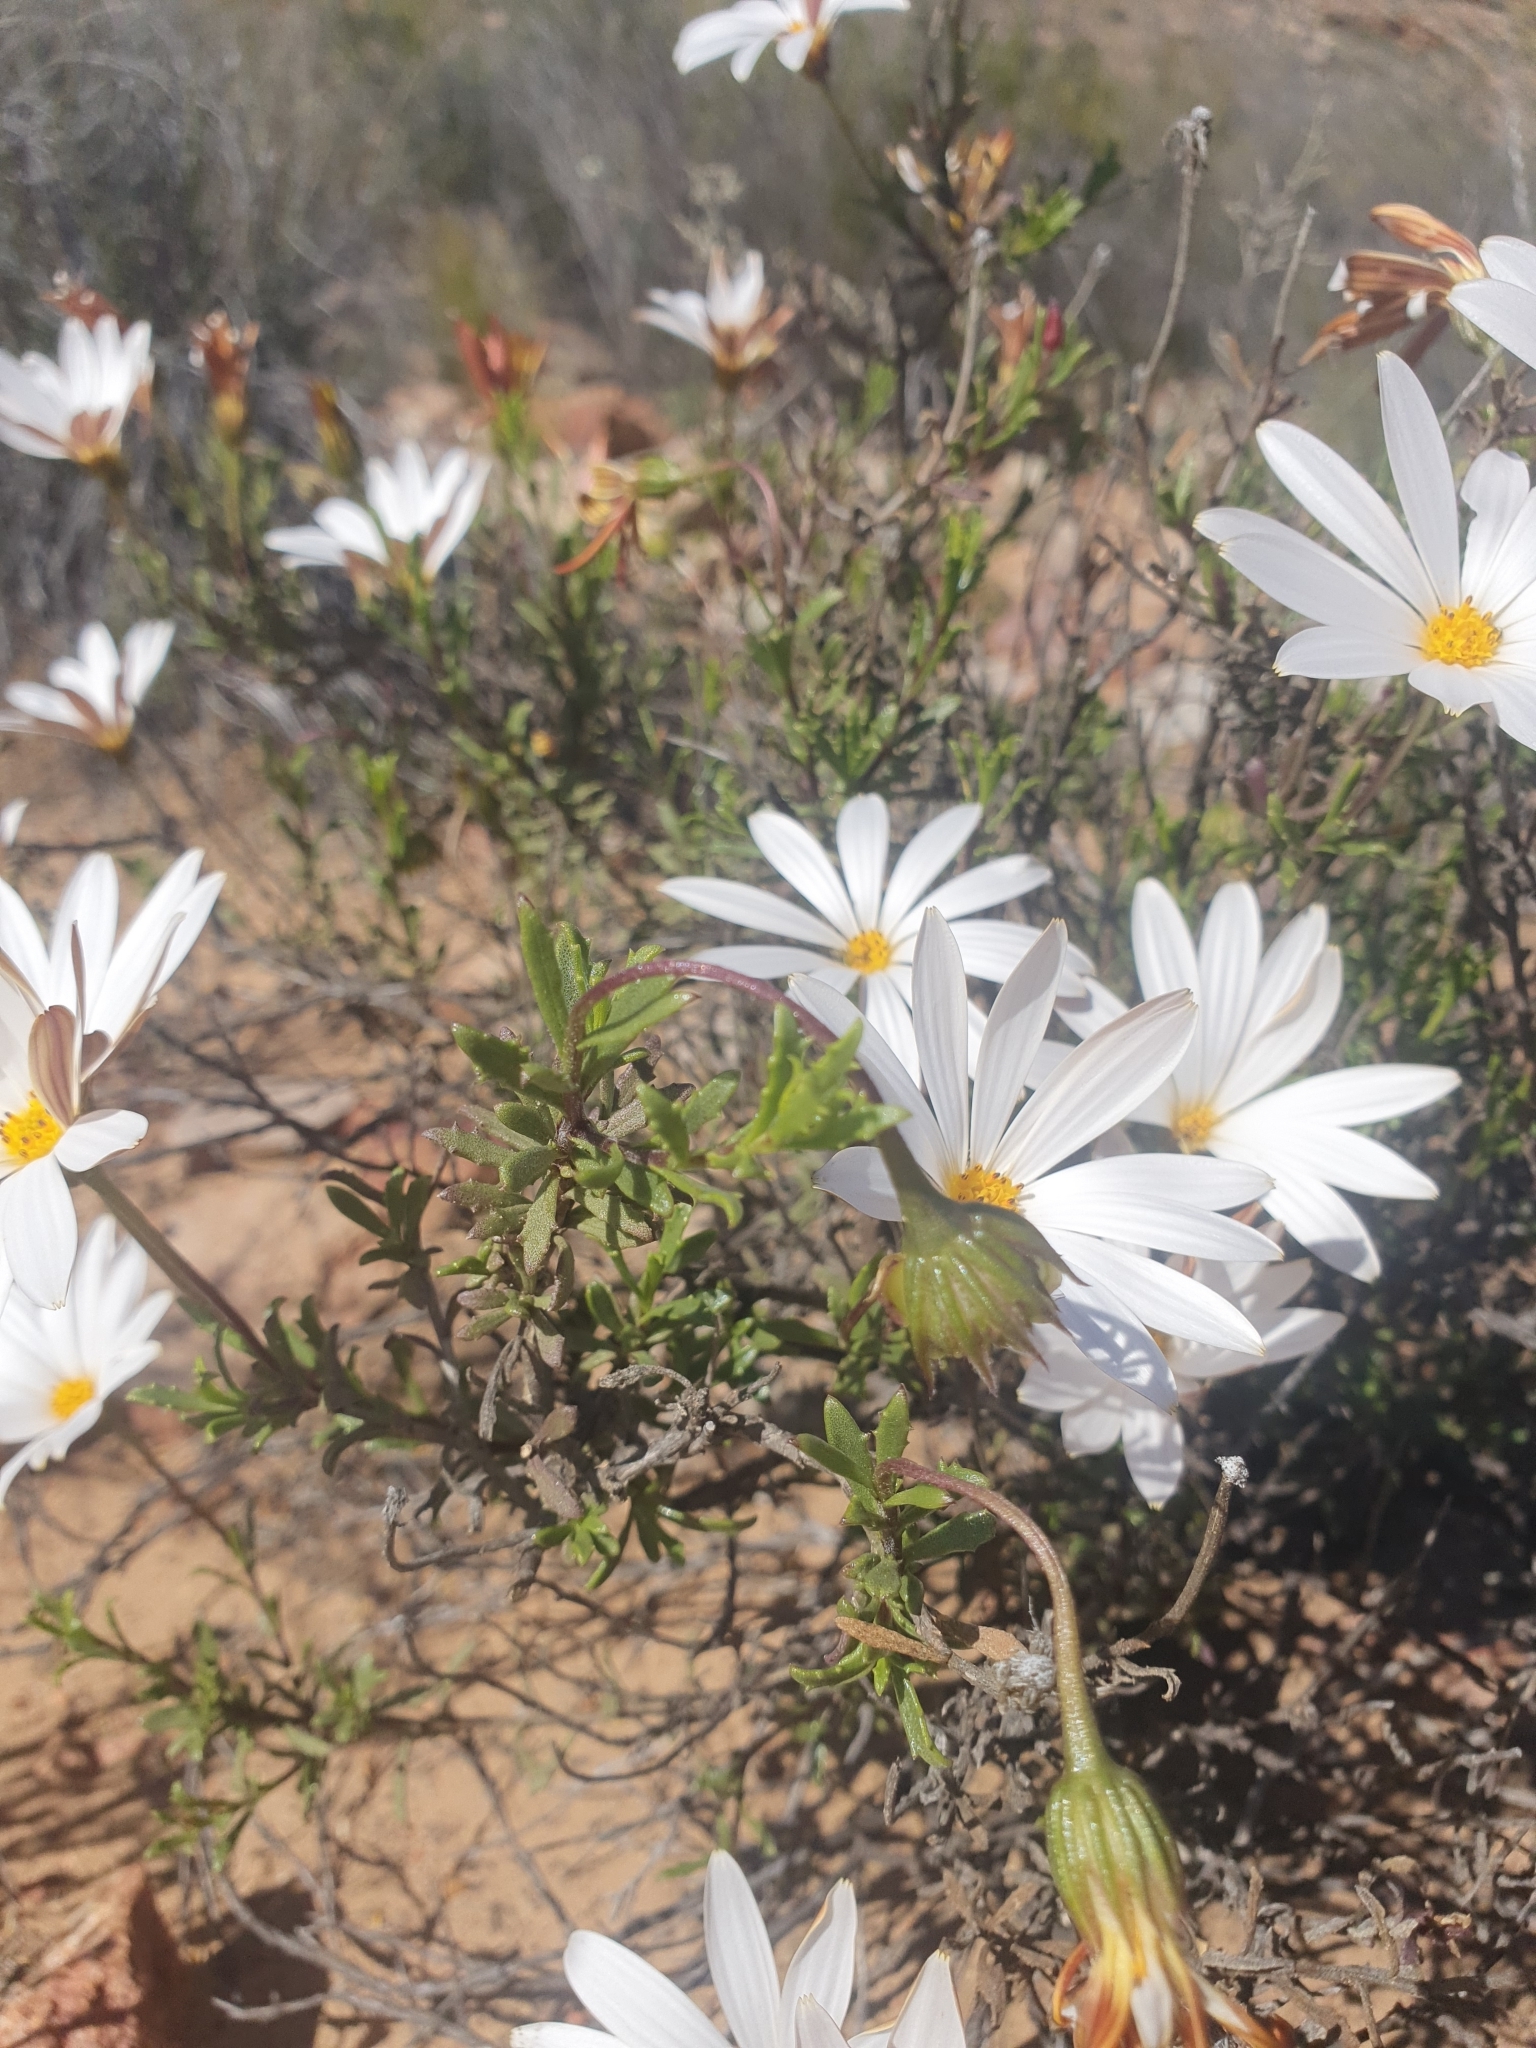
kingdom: Plantae
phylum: Tracheophyta
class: Magnoliopsida
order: Asterales
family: Asteraceae
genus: Dimorphotheca
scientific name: Dimorphotheca cuneata
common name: Daisy
